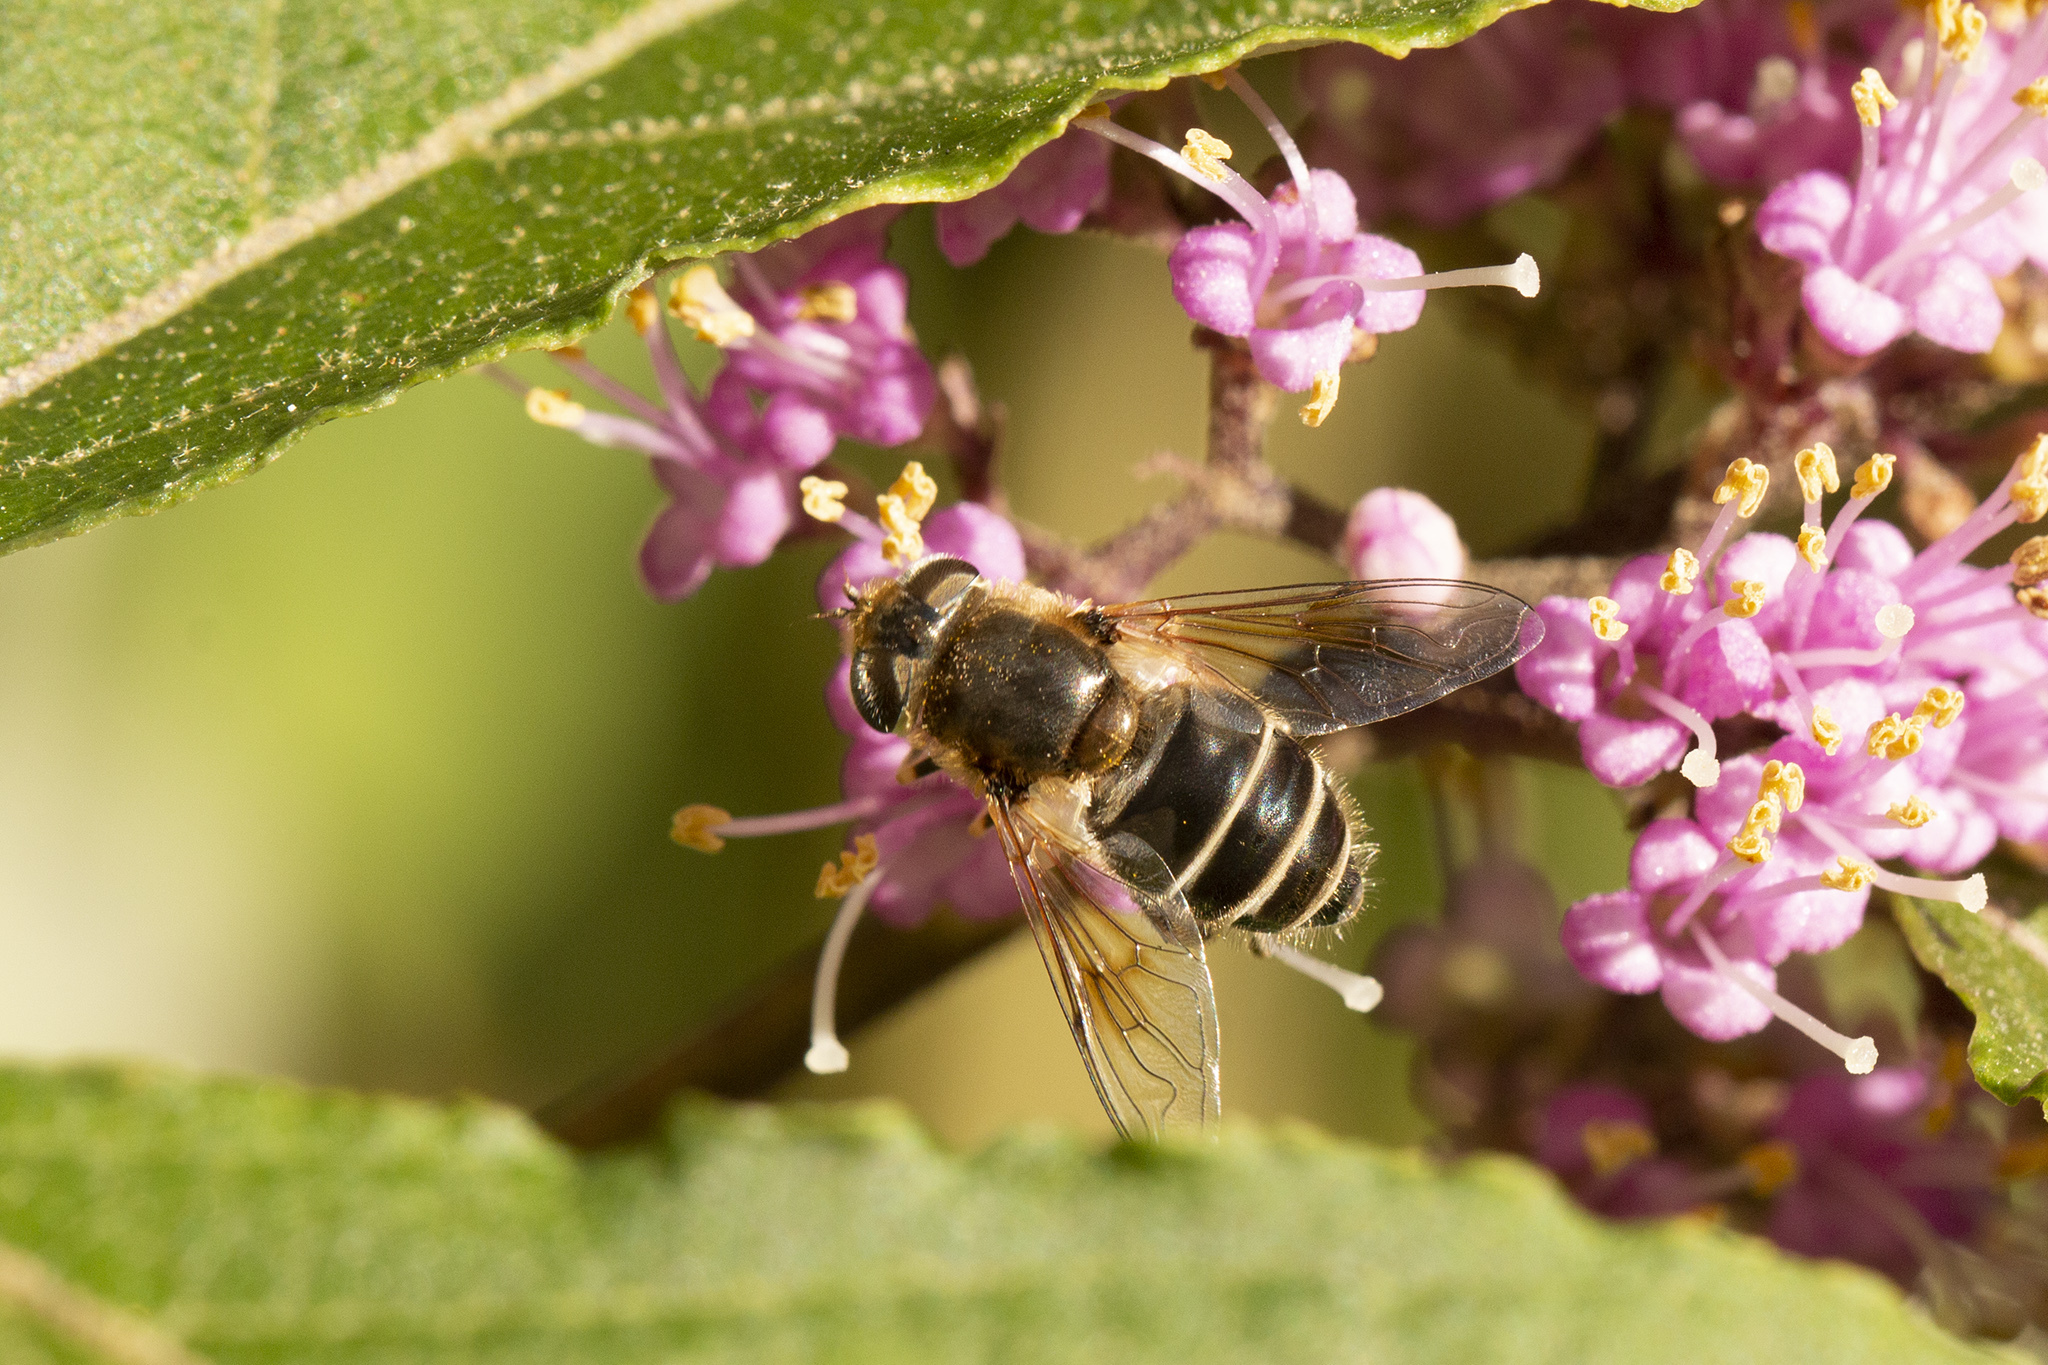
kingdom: Animalia
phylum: Arthropoda
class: Insecta
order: Diptera
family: Syrphidae
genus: Eristalis
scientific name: Eristalis arbustorum
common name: Hover fly
